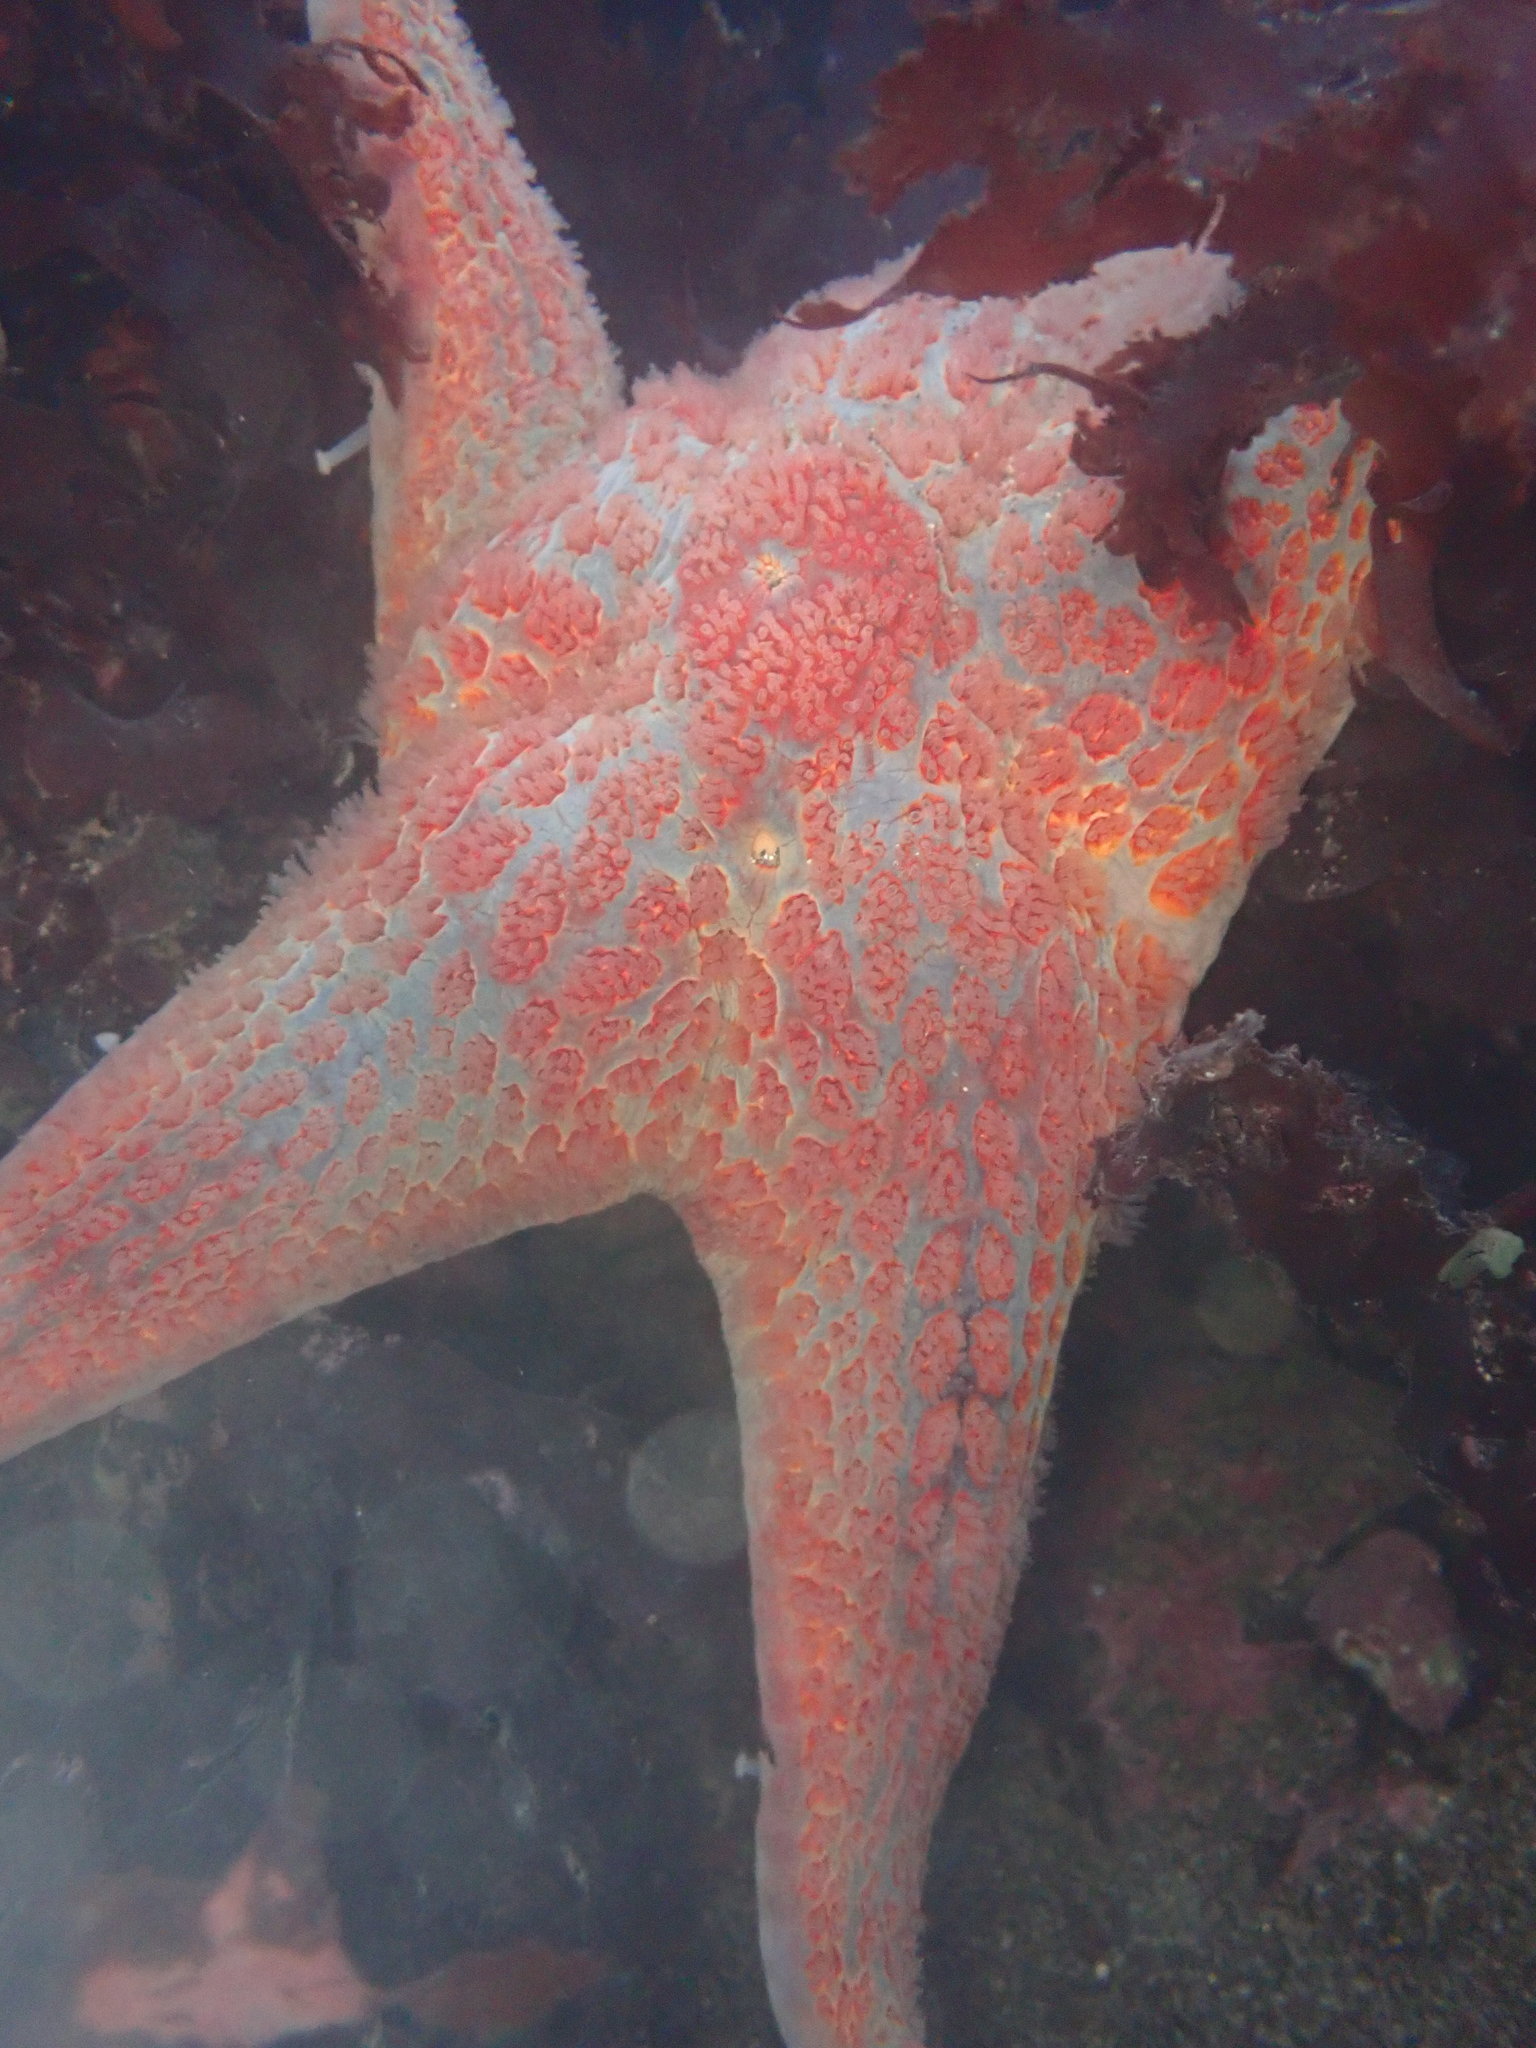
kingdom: Animalia
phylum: Echinodermata
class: Asteroidea
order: Valvatida
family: Asteropseidae
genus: Dermasterias
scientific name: Dermasterias imbricata
